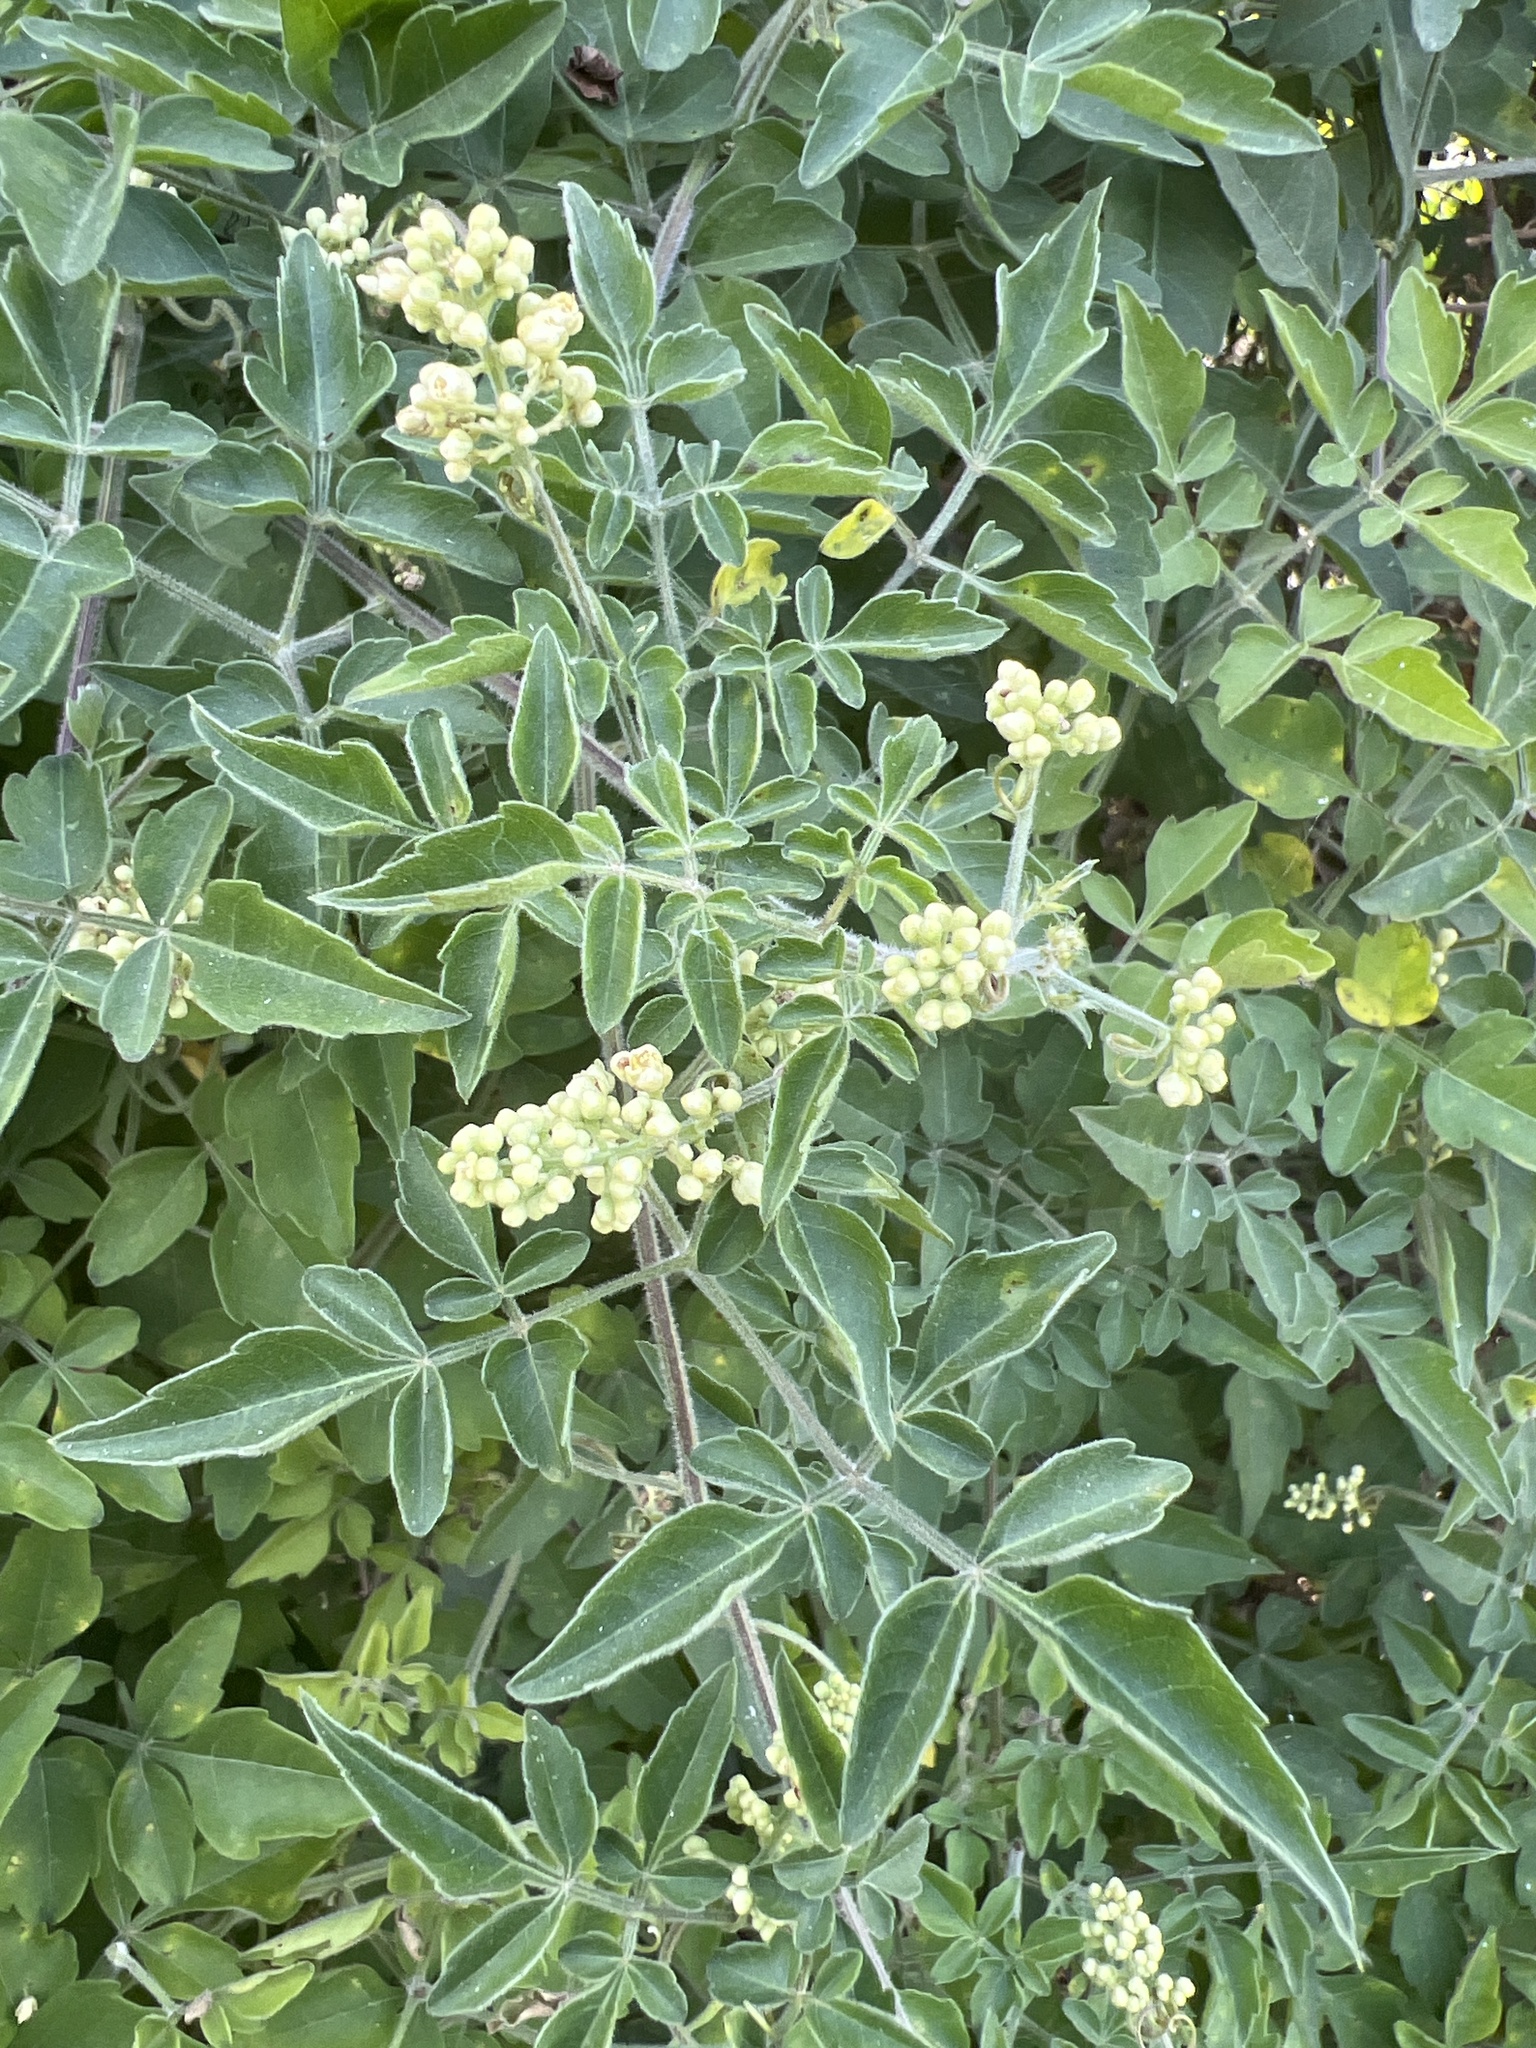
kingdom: Plantae
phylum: Tracheophyta
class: Magnoliopsida
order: Sapindales
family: Sapindaceae
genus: Serjania
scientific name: Serjania brachycarpa
